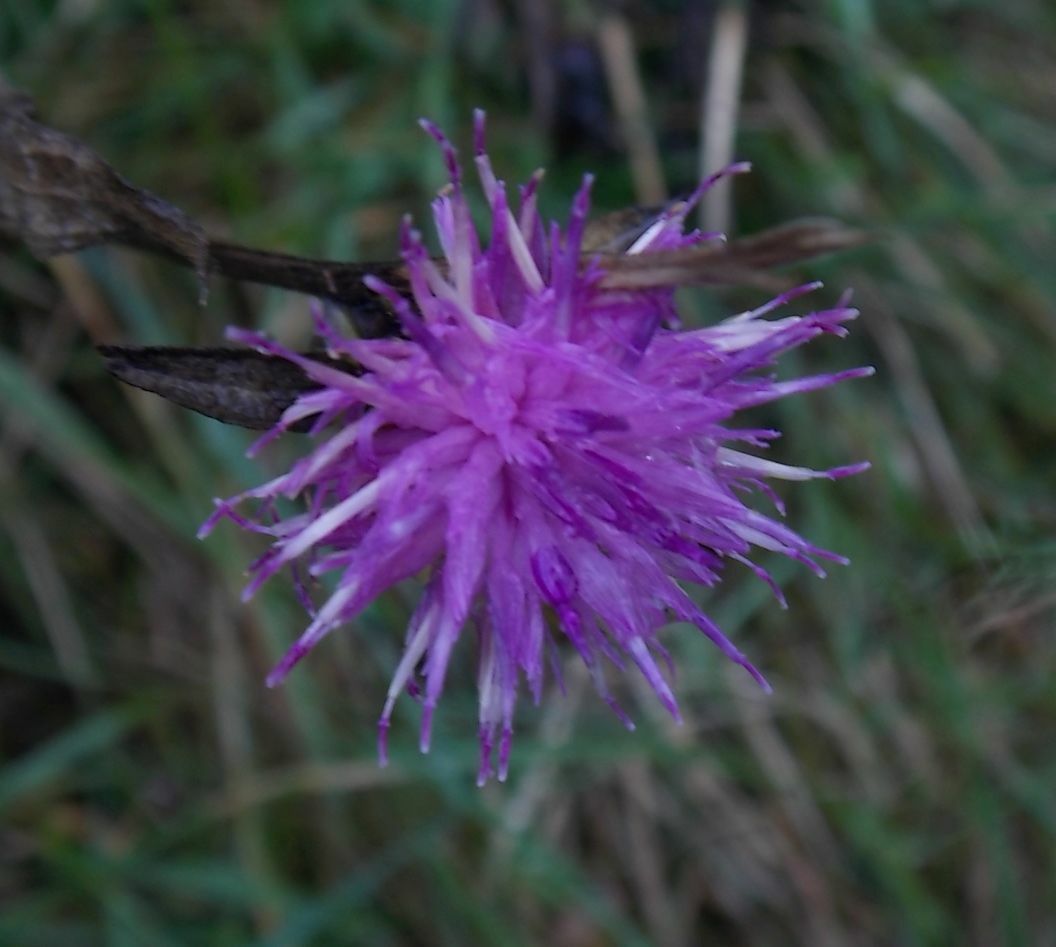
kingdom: Plantae
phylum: Tracheophyta
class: Magnoliopsida
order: Asterales
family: Asteraceae
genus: Centaurea
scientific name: Centaurea nigra
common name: Lesser knapweed
